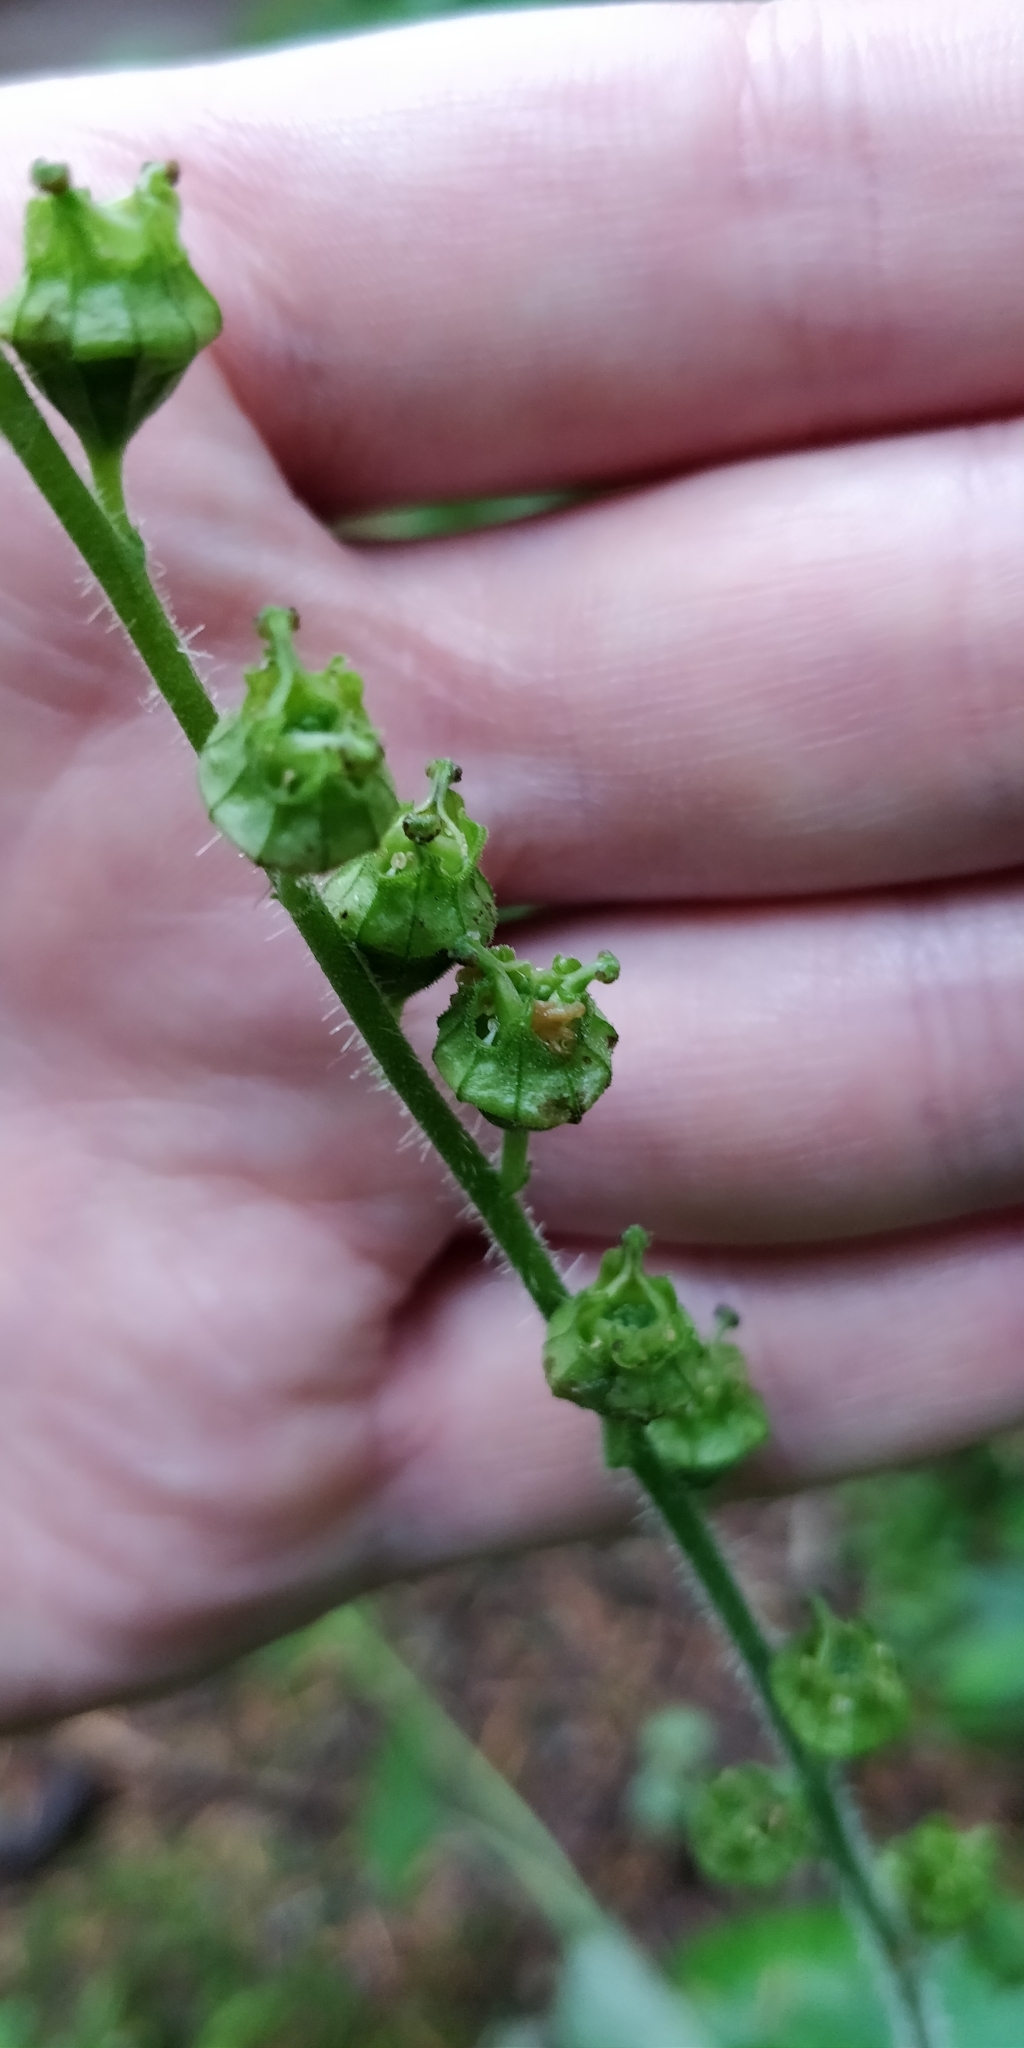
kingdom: Plantae
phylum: Tracheophyta
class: Magnoliopsida
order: Saxifragales
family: Saxifragaceae
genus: Tellima
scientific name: Tellima grandiflora
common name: Fringecups
